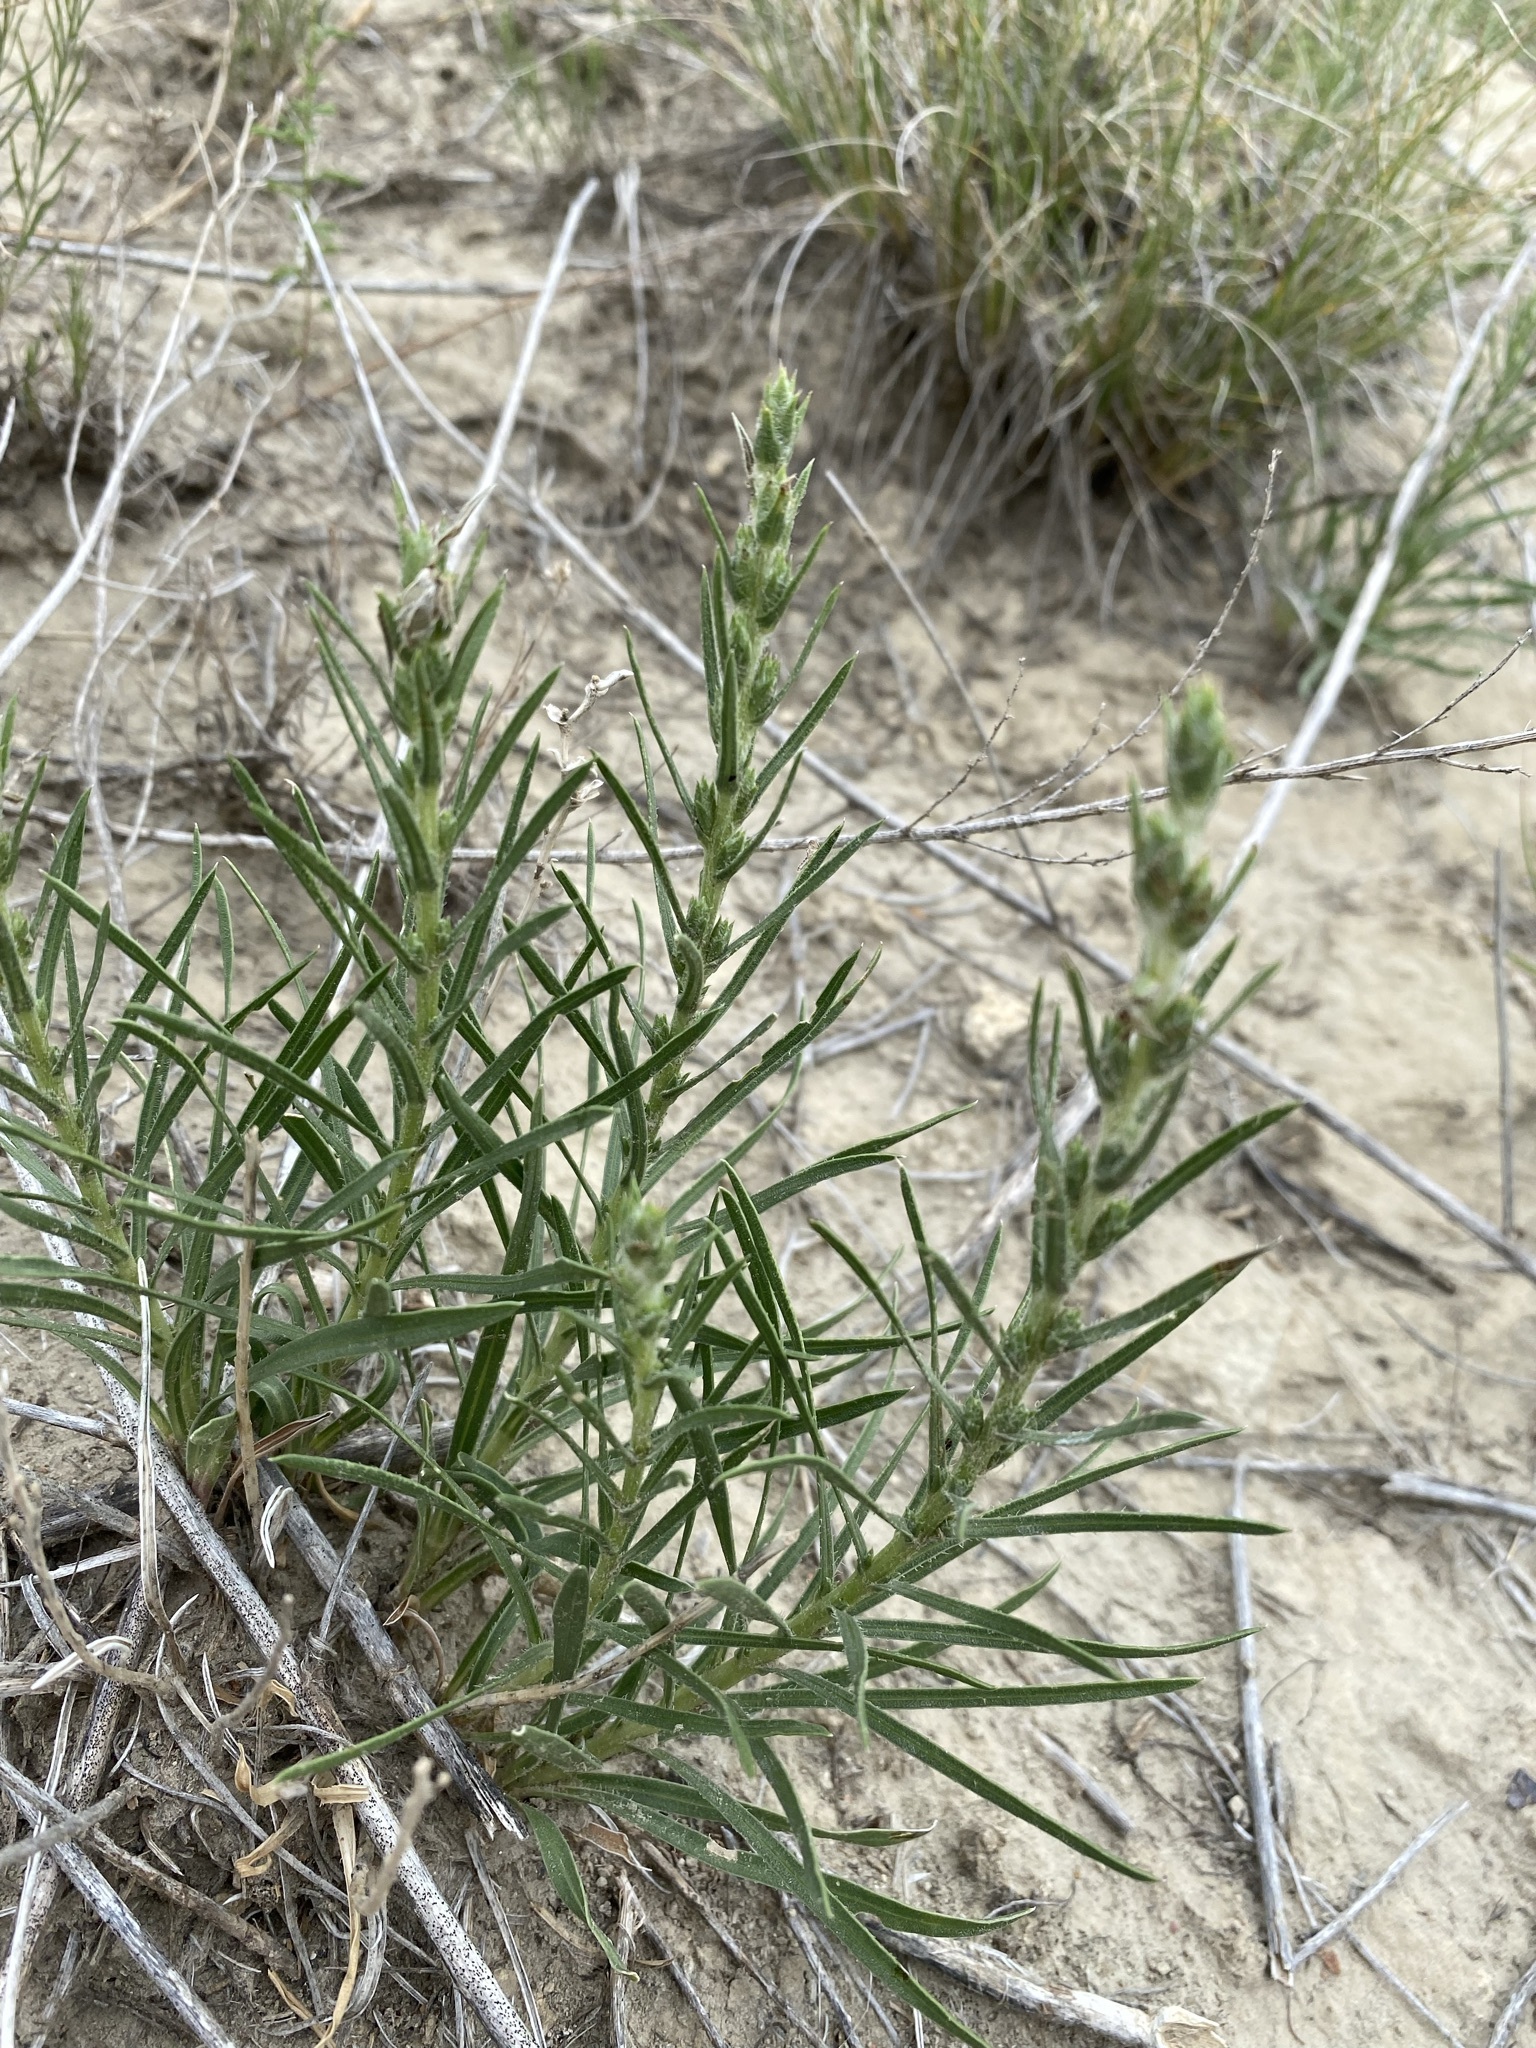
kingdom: Plantae
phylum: Tracheophyta
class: Magnoliopsida
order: Asterales
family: Asteraceae
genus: Liatris
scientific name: Liatris punctata
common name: Dotted gayfeather
